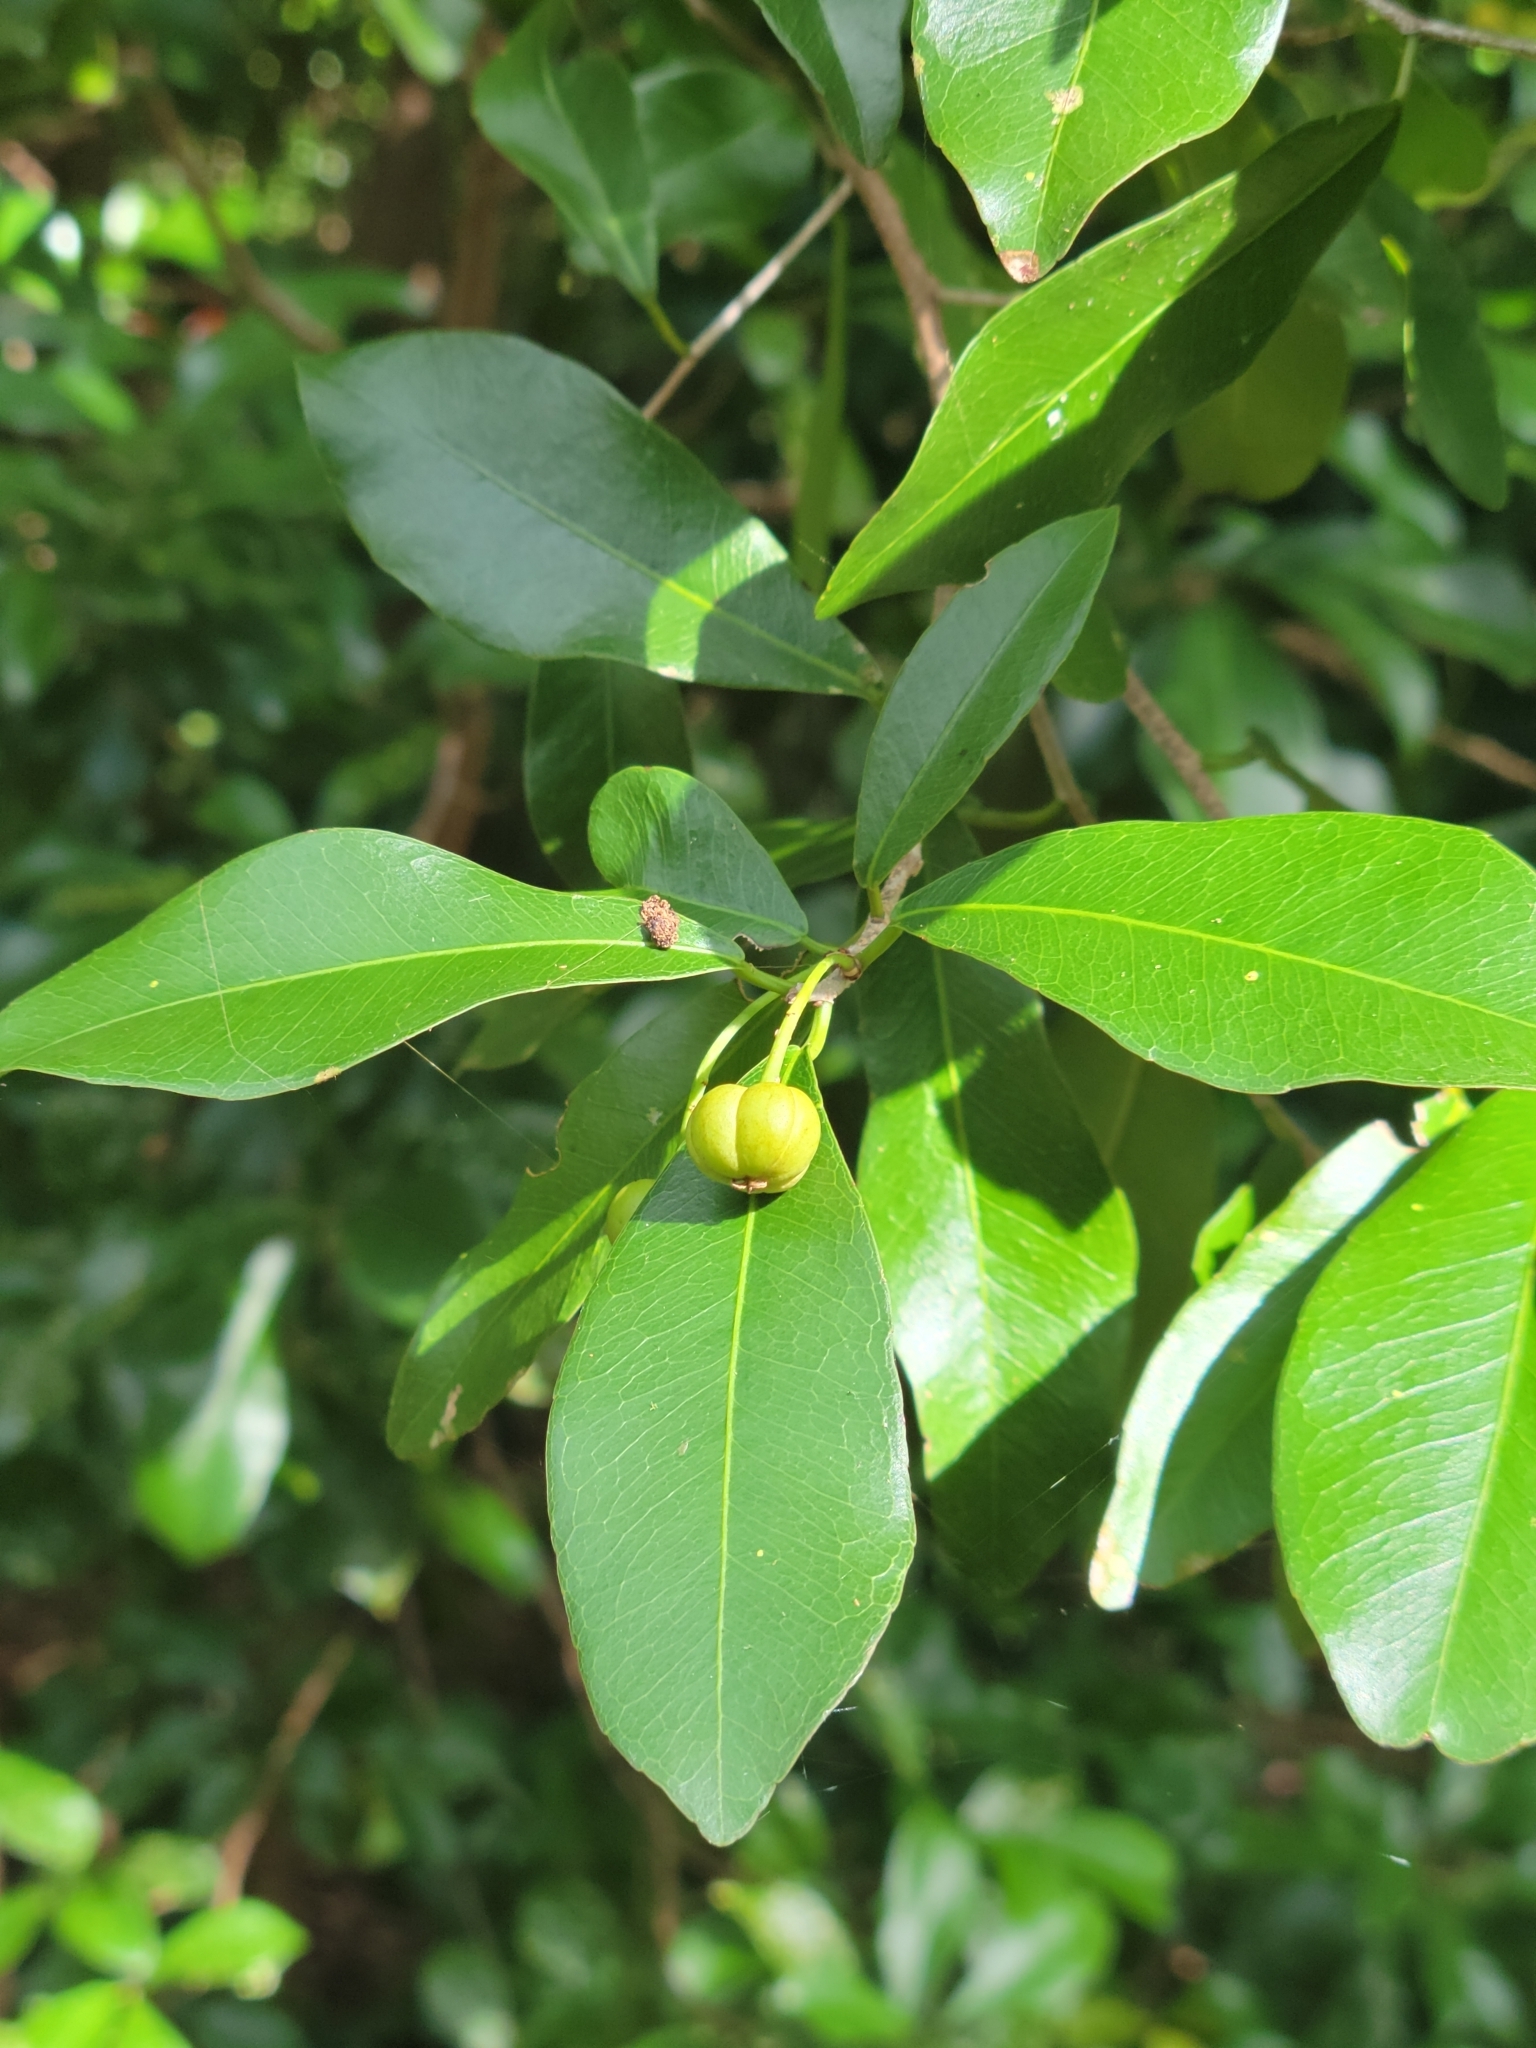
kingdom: Plantae
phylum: Tracheophyta
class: Magnoliopsida
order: Malpighiales
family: Euphorbiaceae
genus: Gymnanthes
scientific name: Gymnanthes lucida
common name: Oysterwood
